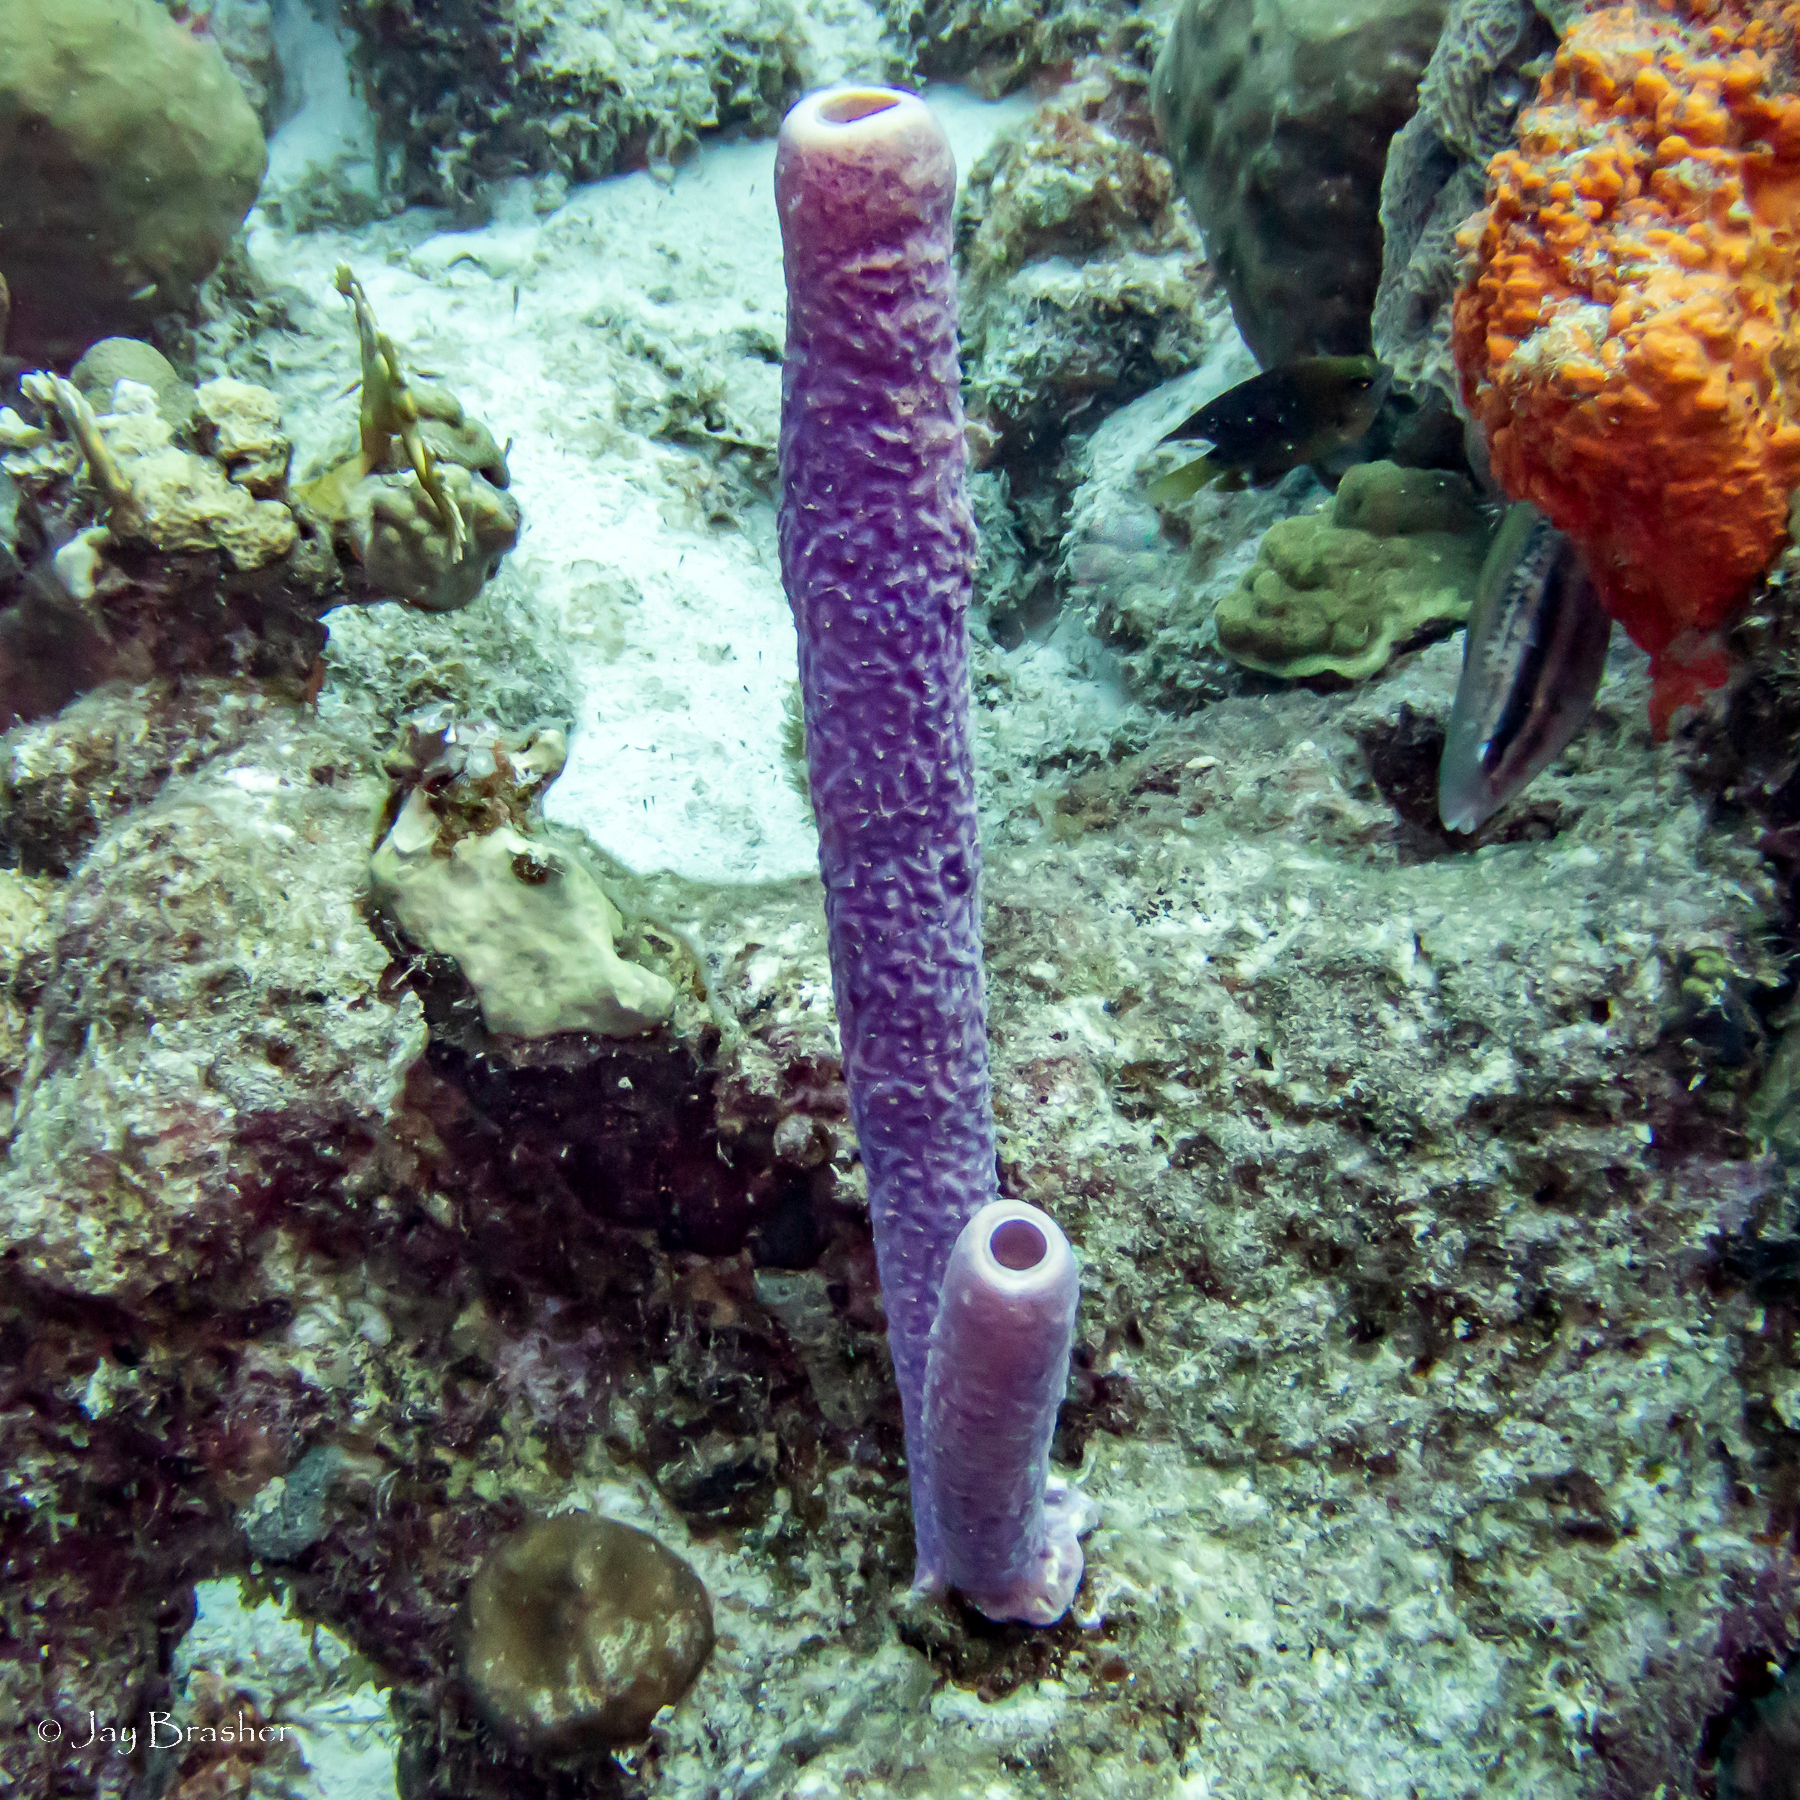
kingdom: Animalia
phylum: Porifera
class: Demospongiae
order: Verongiida
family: Aplysinidae
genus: Aplysina
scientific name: Aplysina archeri
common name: Stove-pipe sponge
